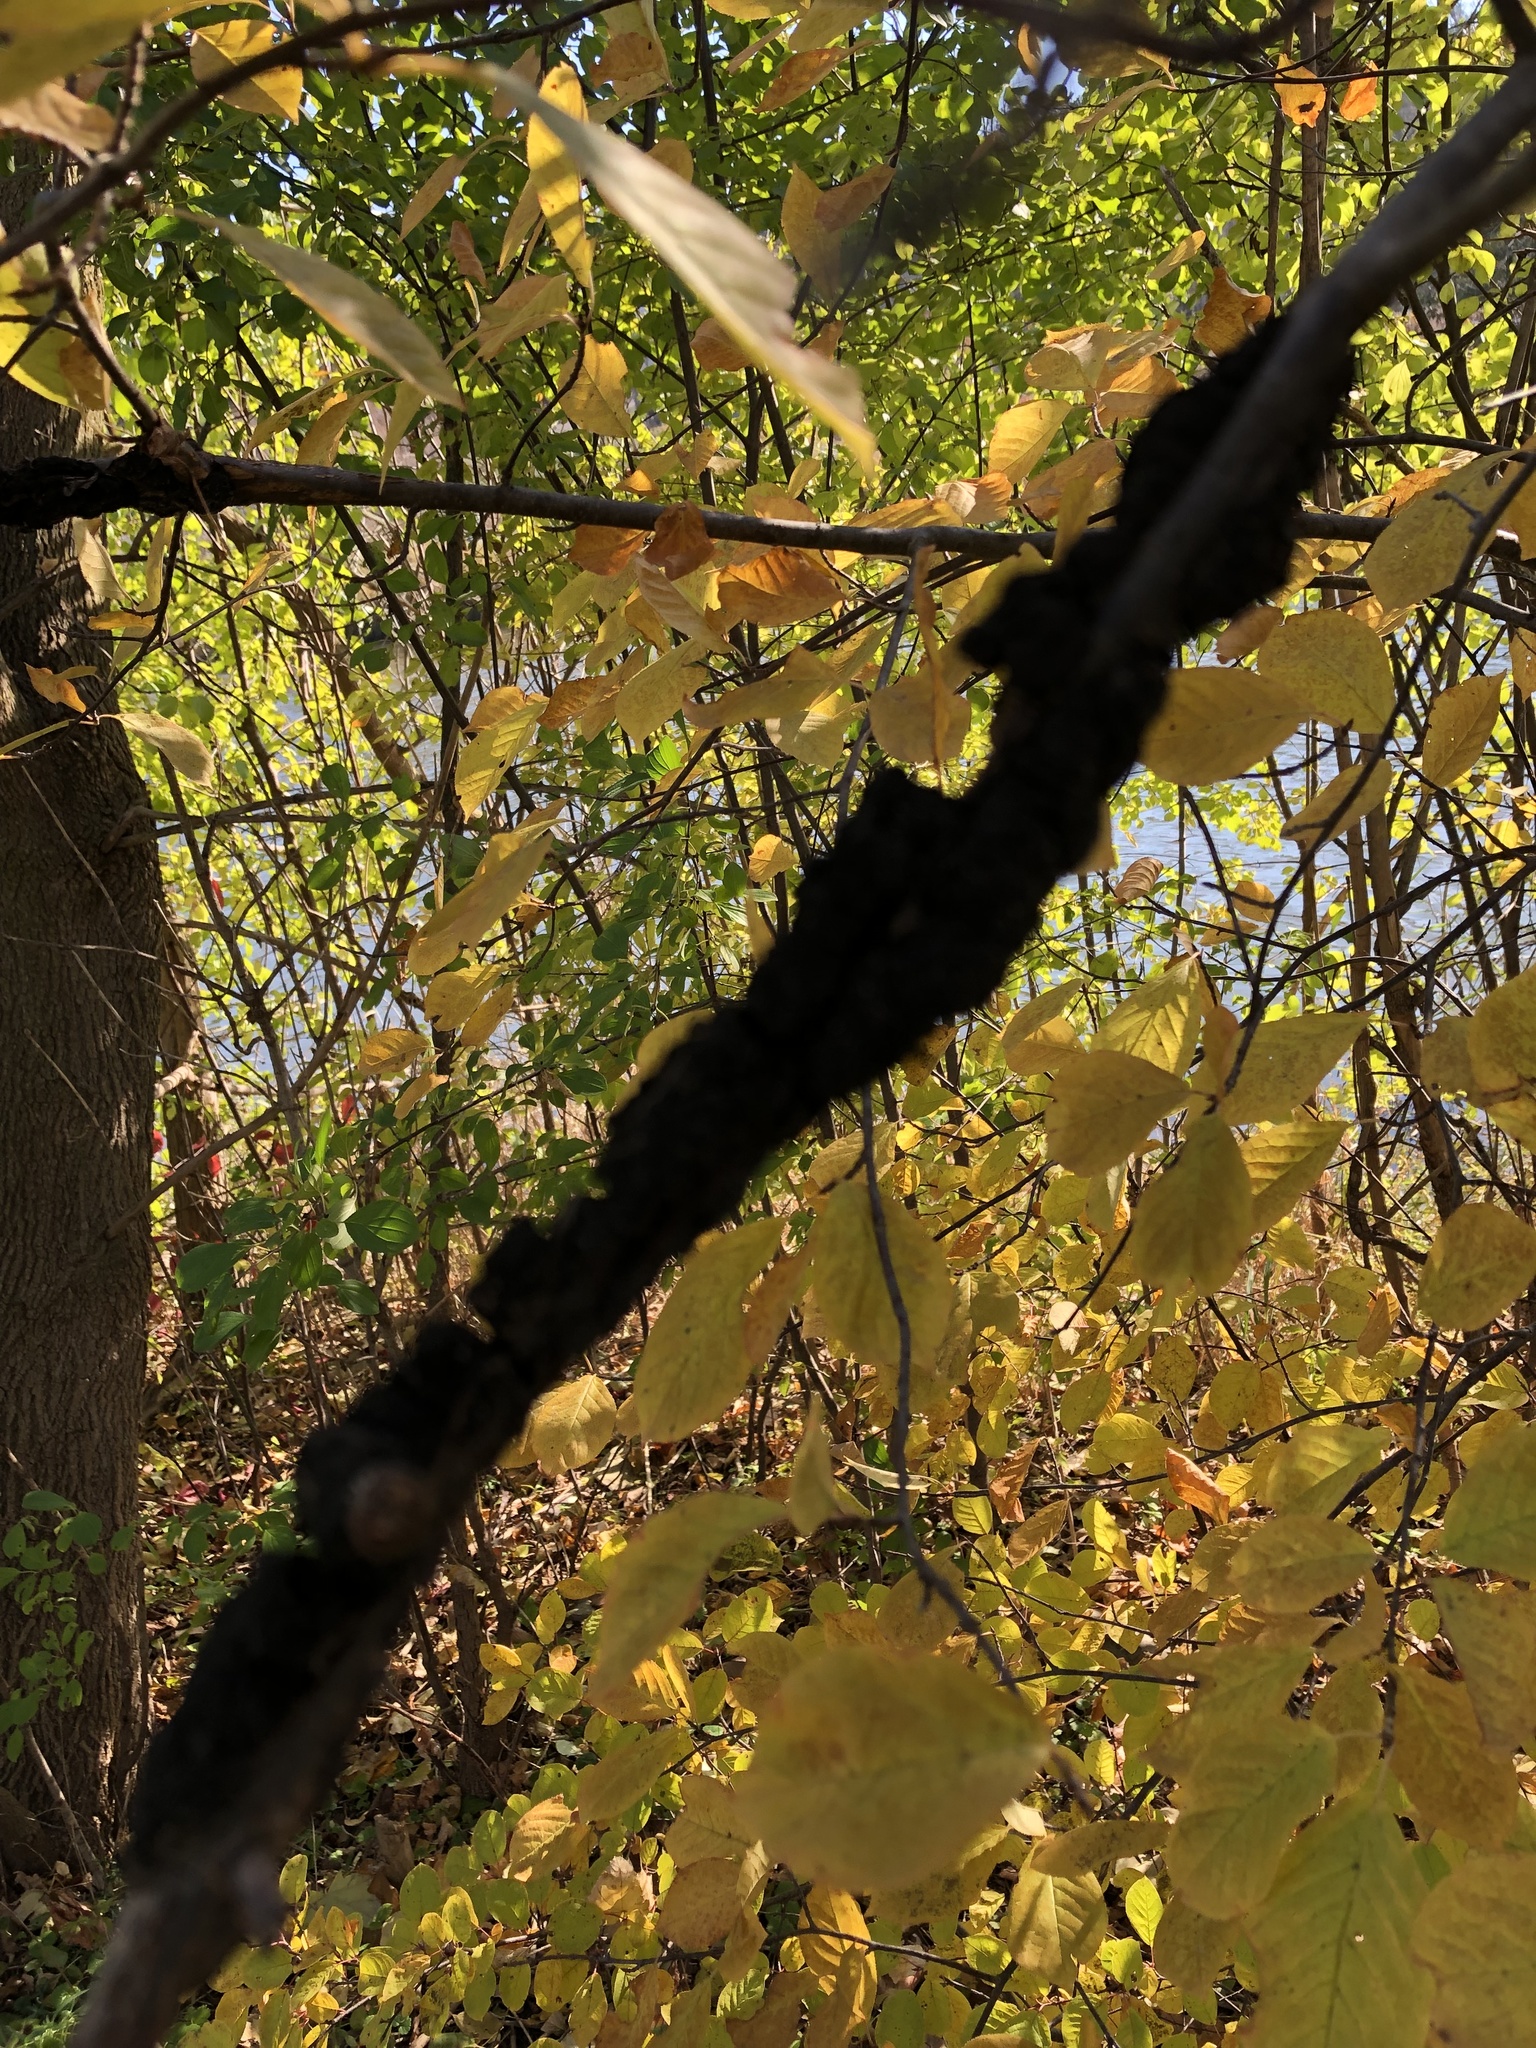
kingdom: Fungi
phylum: Ascomycota
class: Dothideomycetes
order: Venturiales
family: Venturiaceae
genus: Apiosporina
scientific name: Apiosporina morbosa
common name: Black knot
